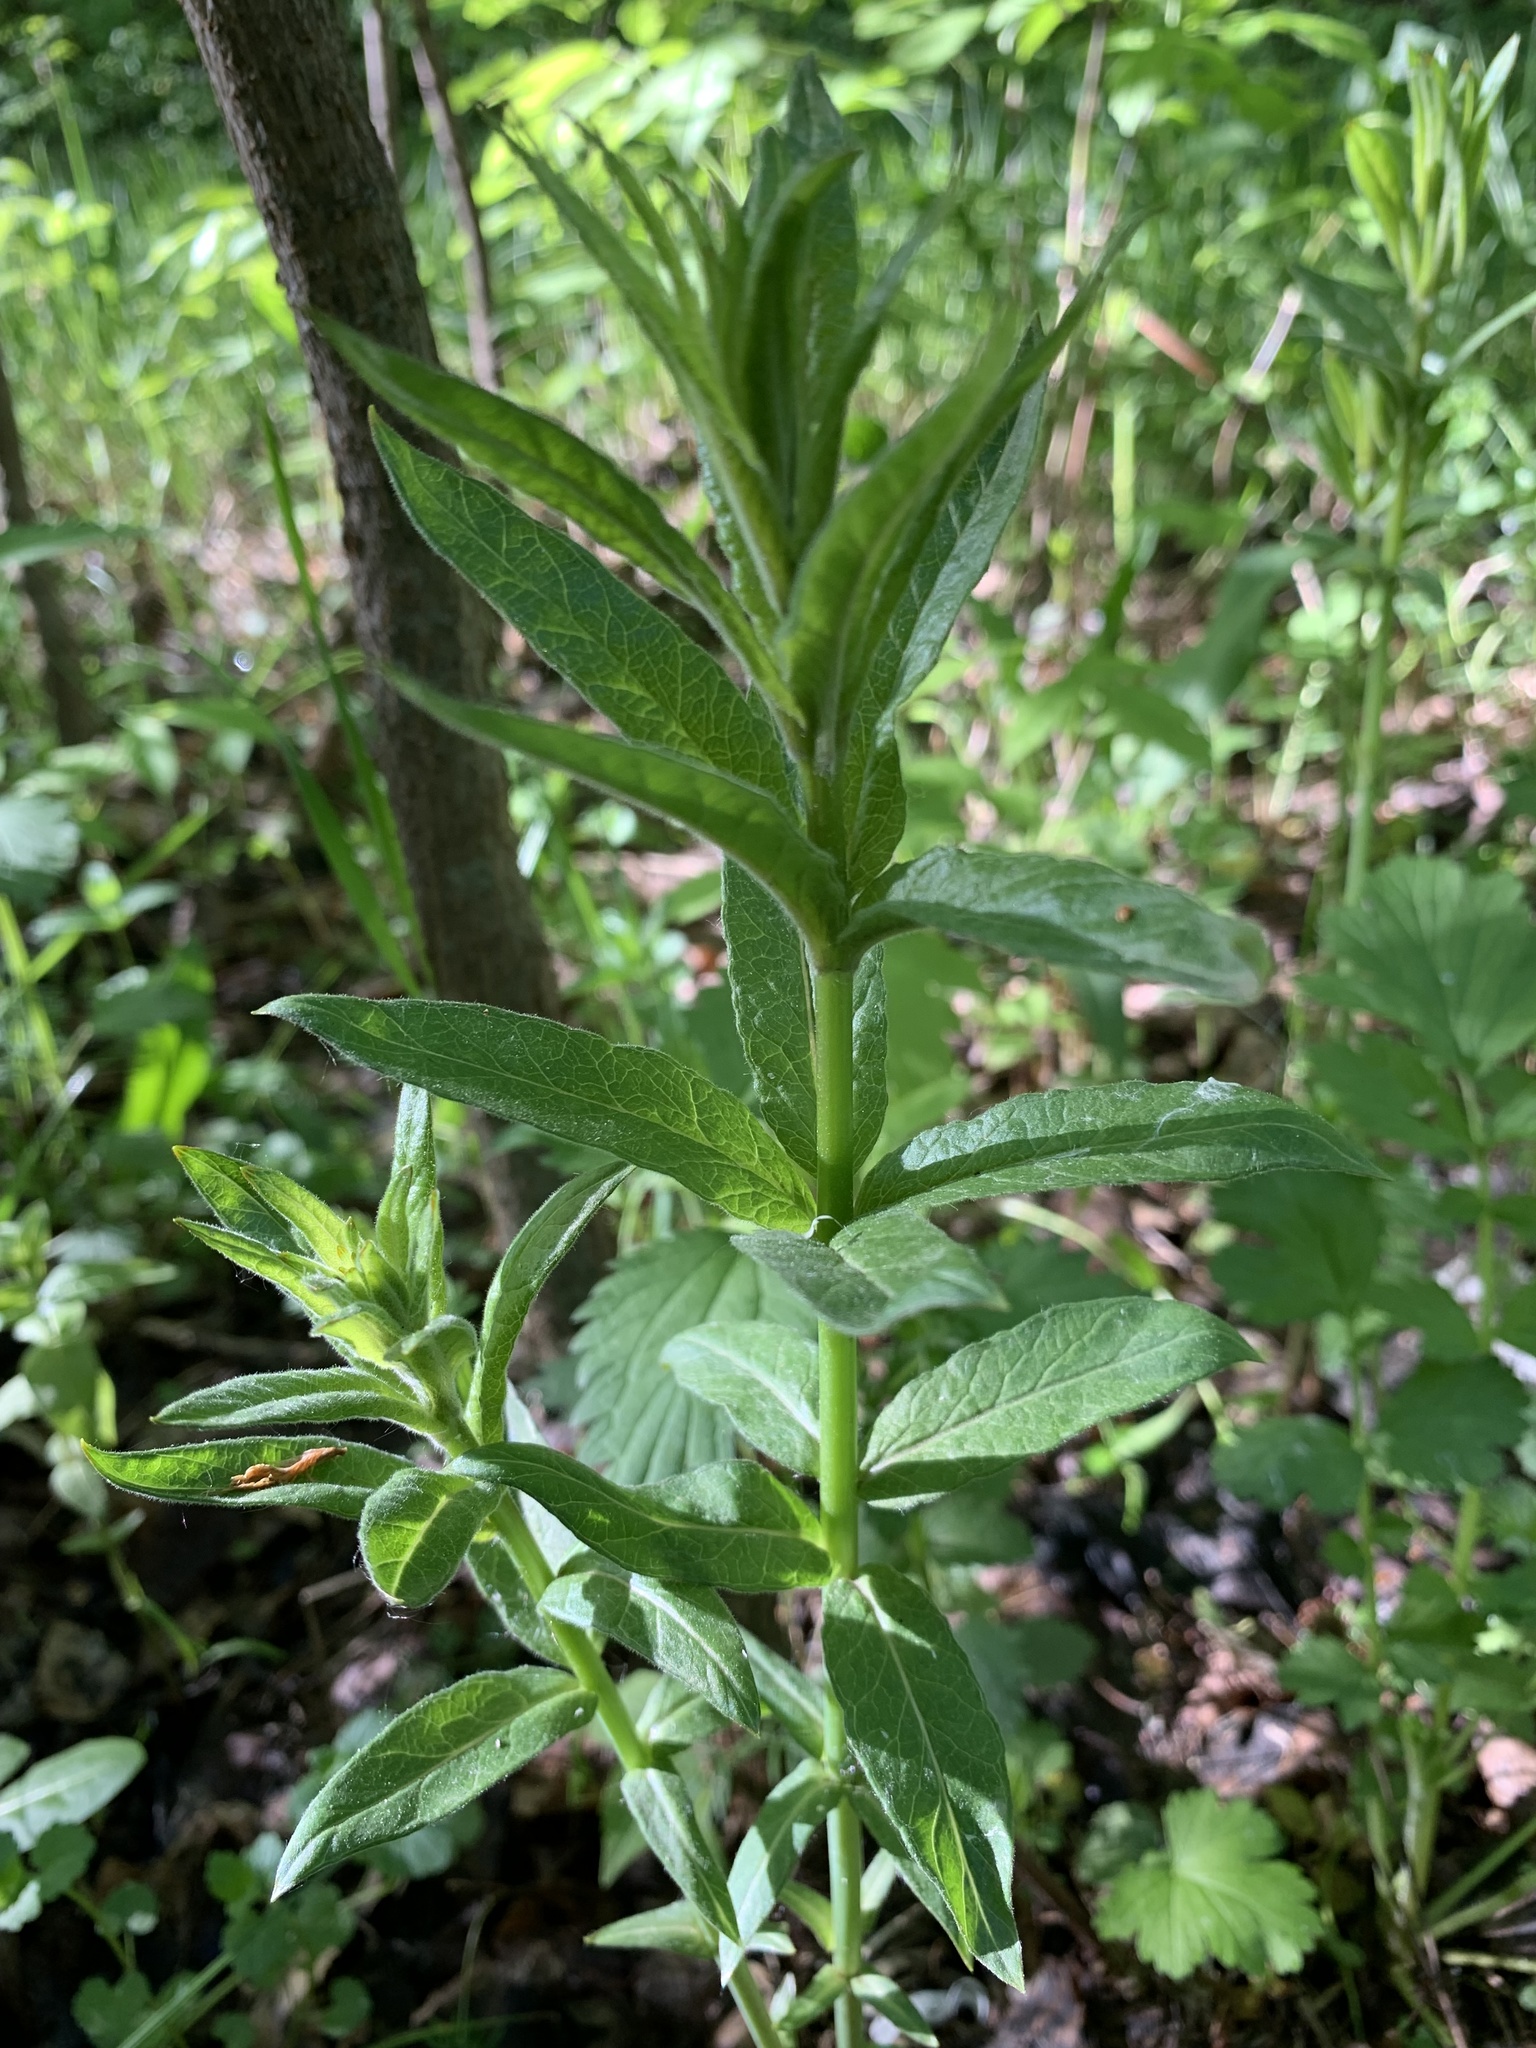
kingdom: Plantae
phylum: Tracheophyta
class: Magnoliopsida
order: Ericales
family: Primulaceae
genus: Lysimachia
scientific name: Lysimachia vulgaris
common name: Yellow loosestrife
